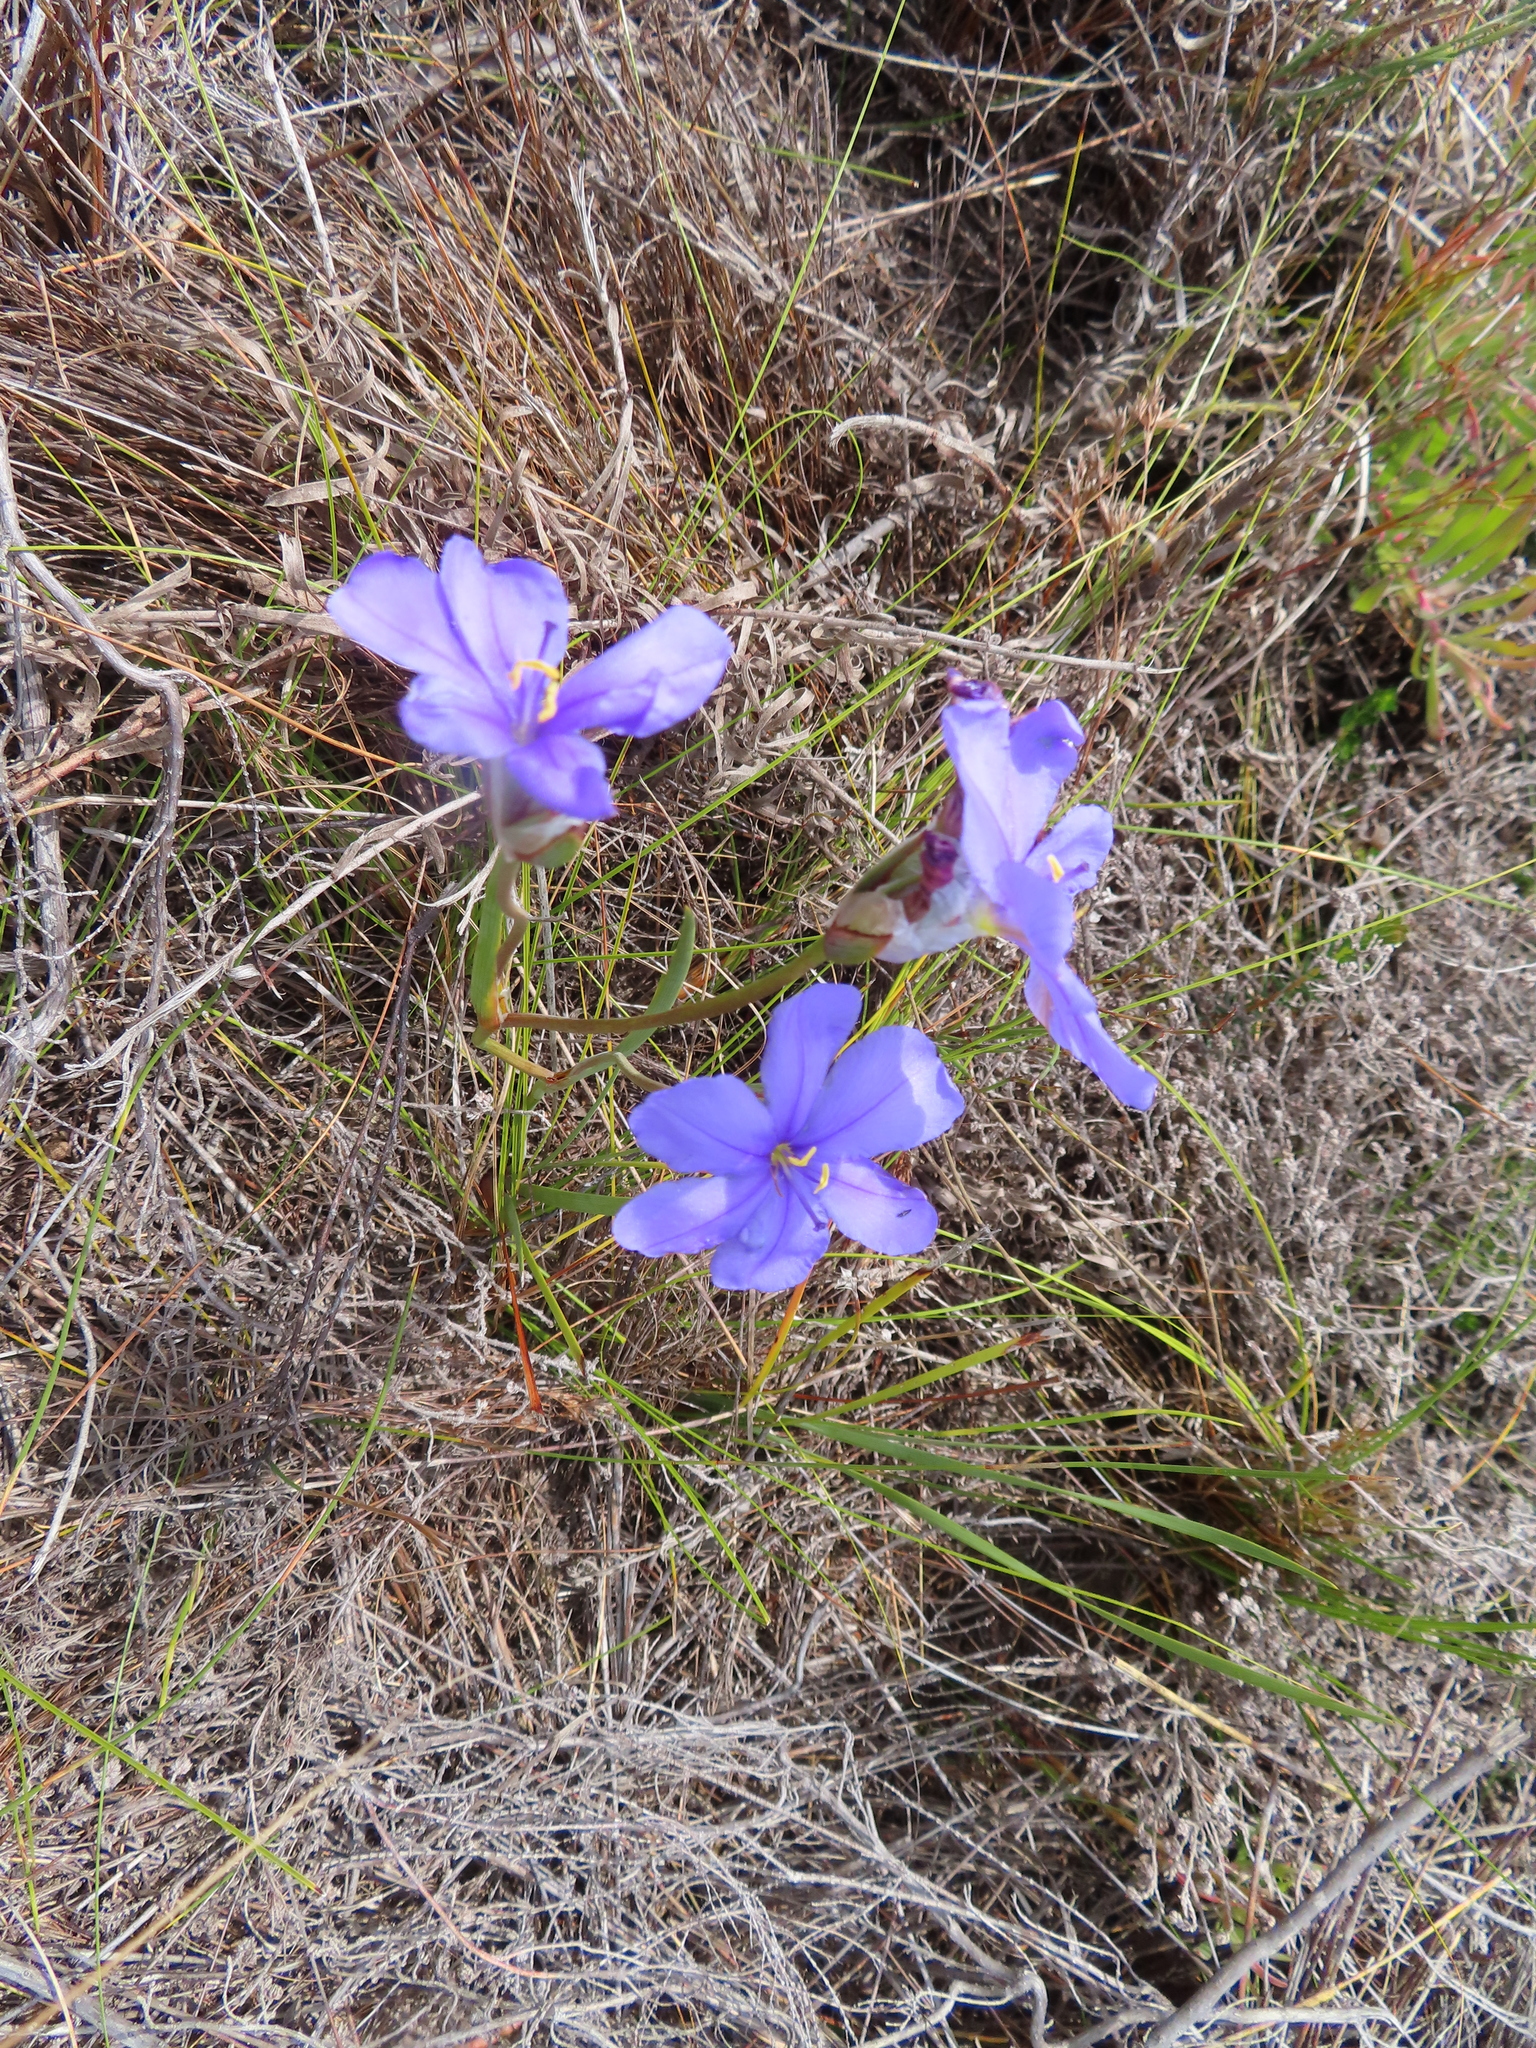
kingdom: Plantae
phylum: Tracheophyta
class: Liliopsida
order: Asparagales
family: Iridaceae
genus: Aristea
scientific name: Aristea oligocephala
